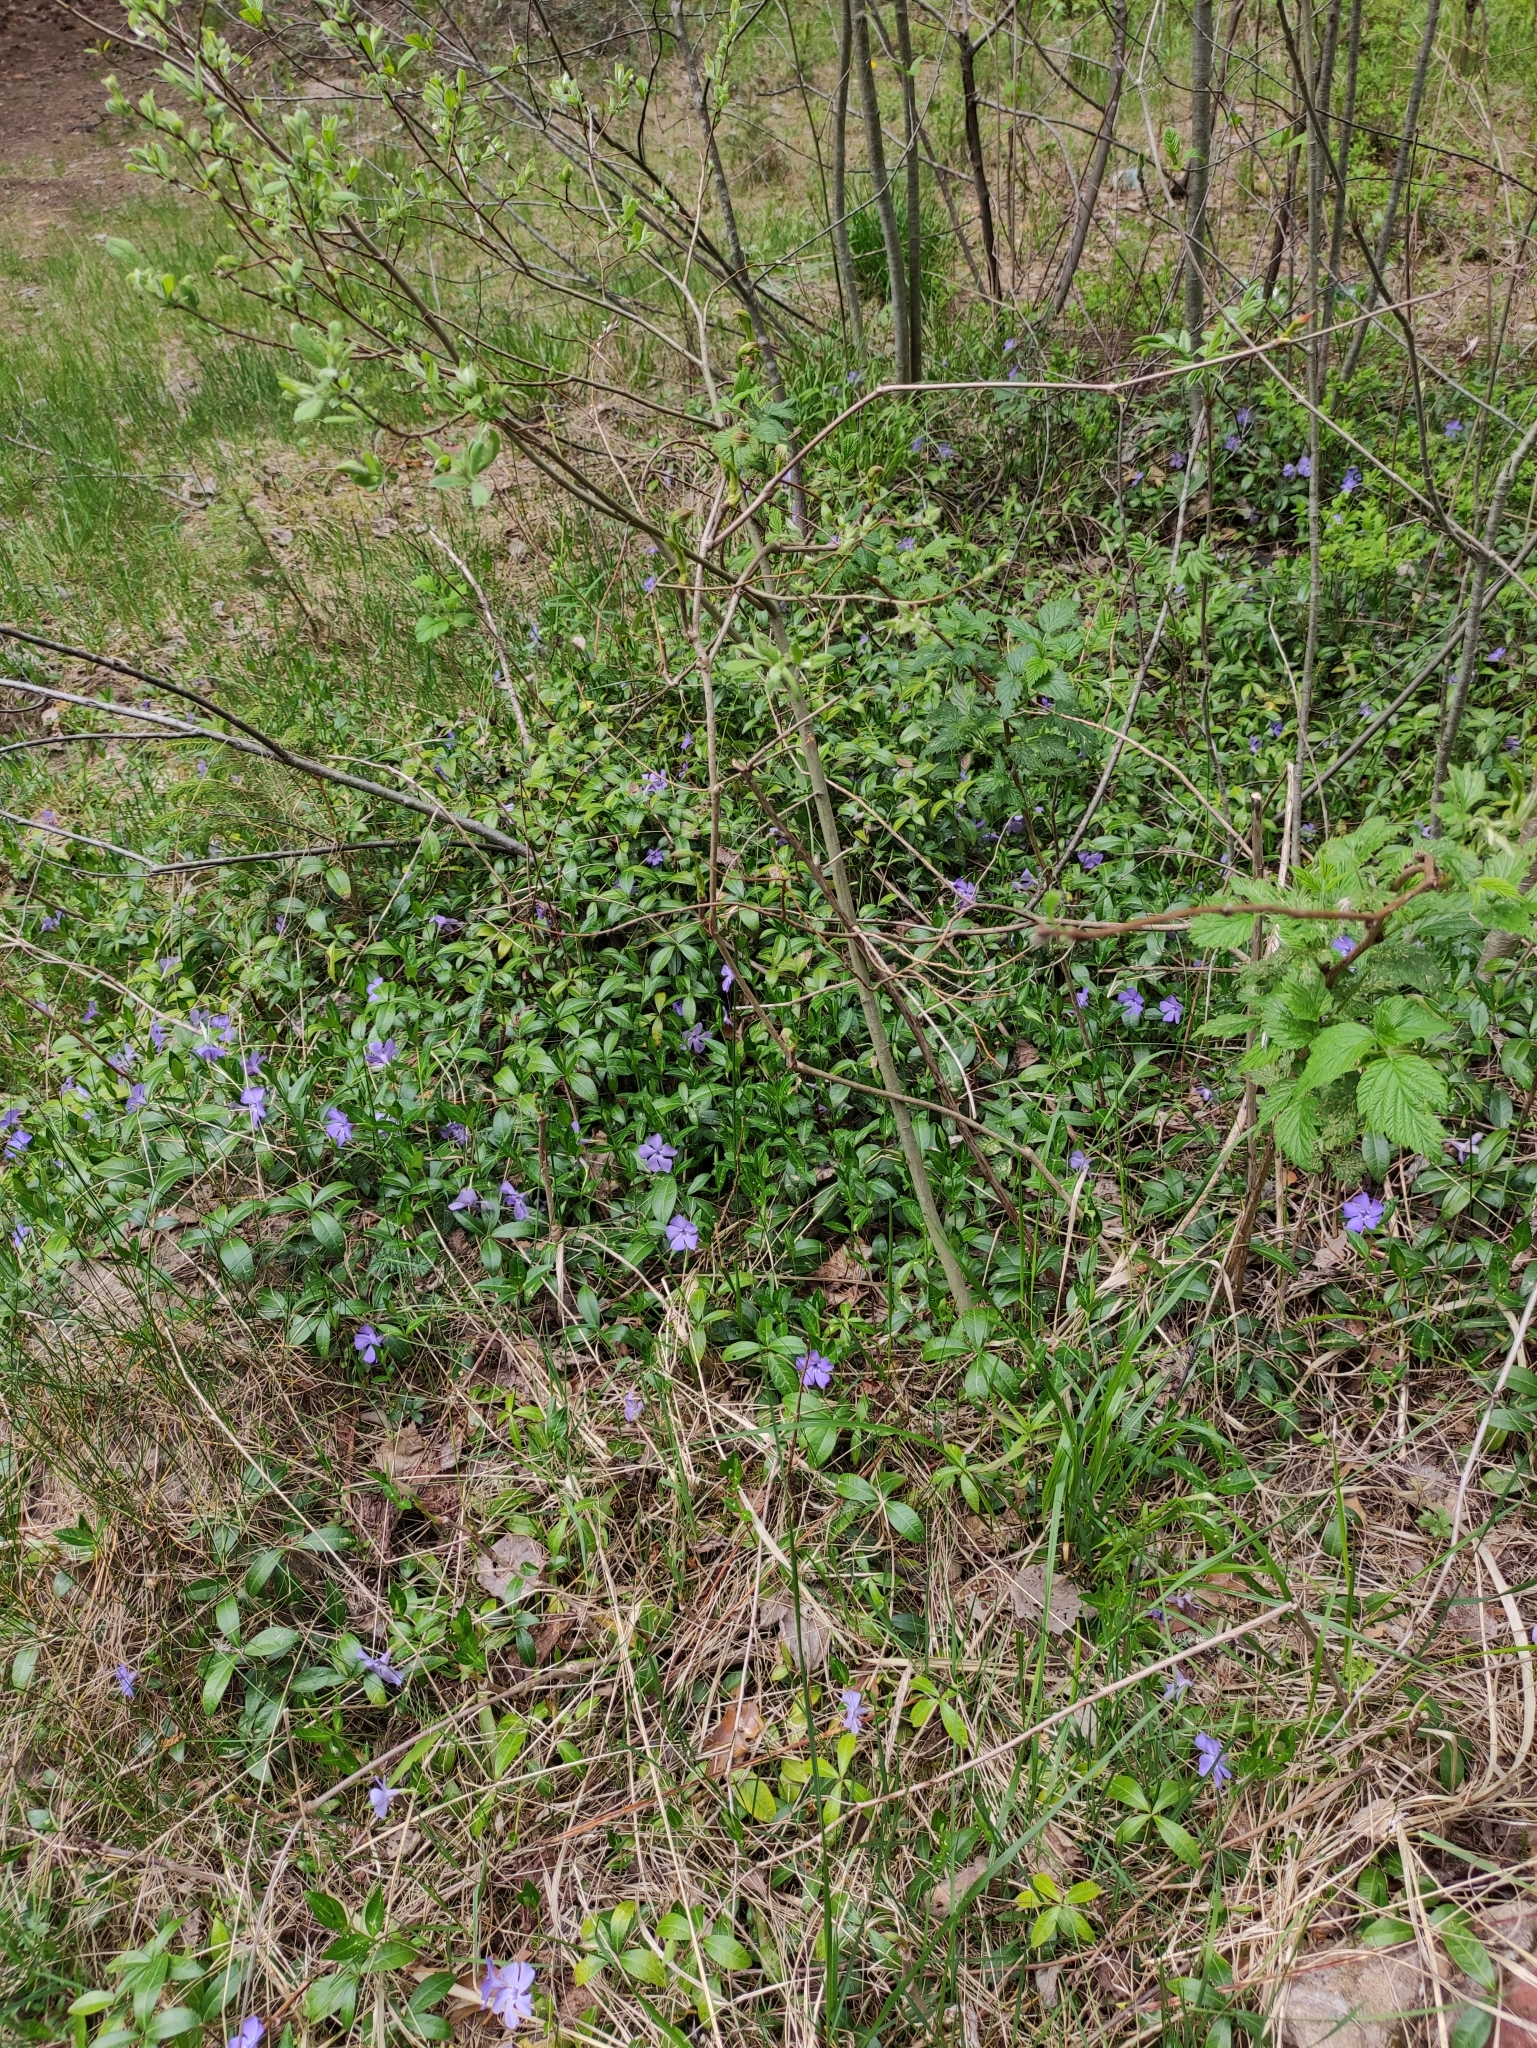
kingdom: Plantae
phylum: Tracheophyta
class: Magnoliopsida
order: Gentianales
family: Apocynaceae
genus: Vinca
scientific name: Vinca minor
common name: Lesser periwinkle
